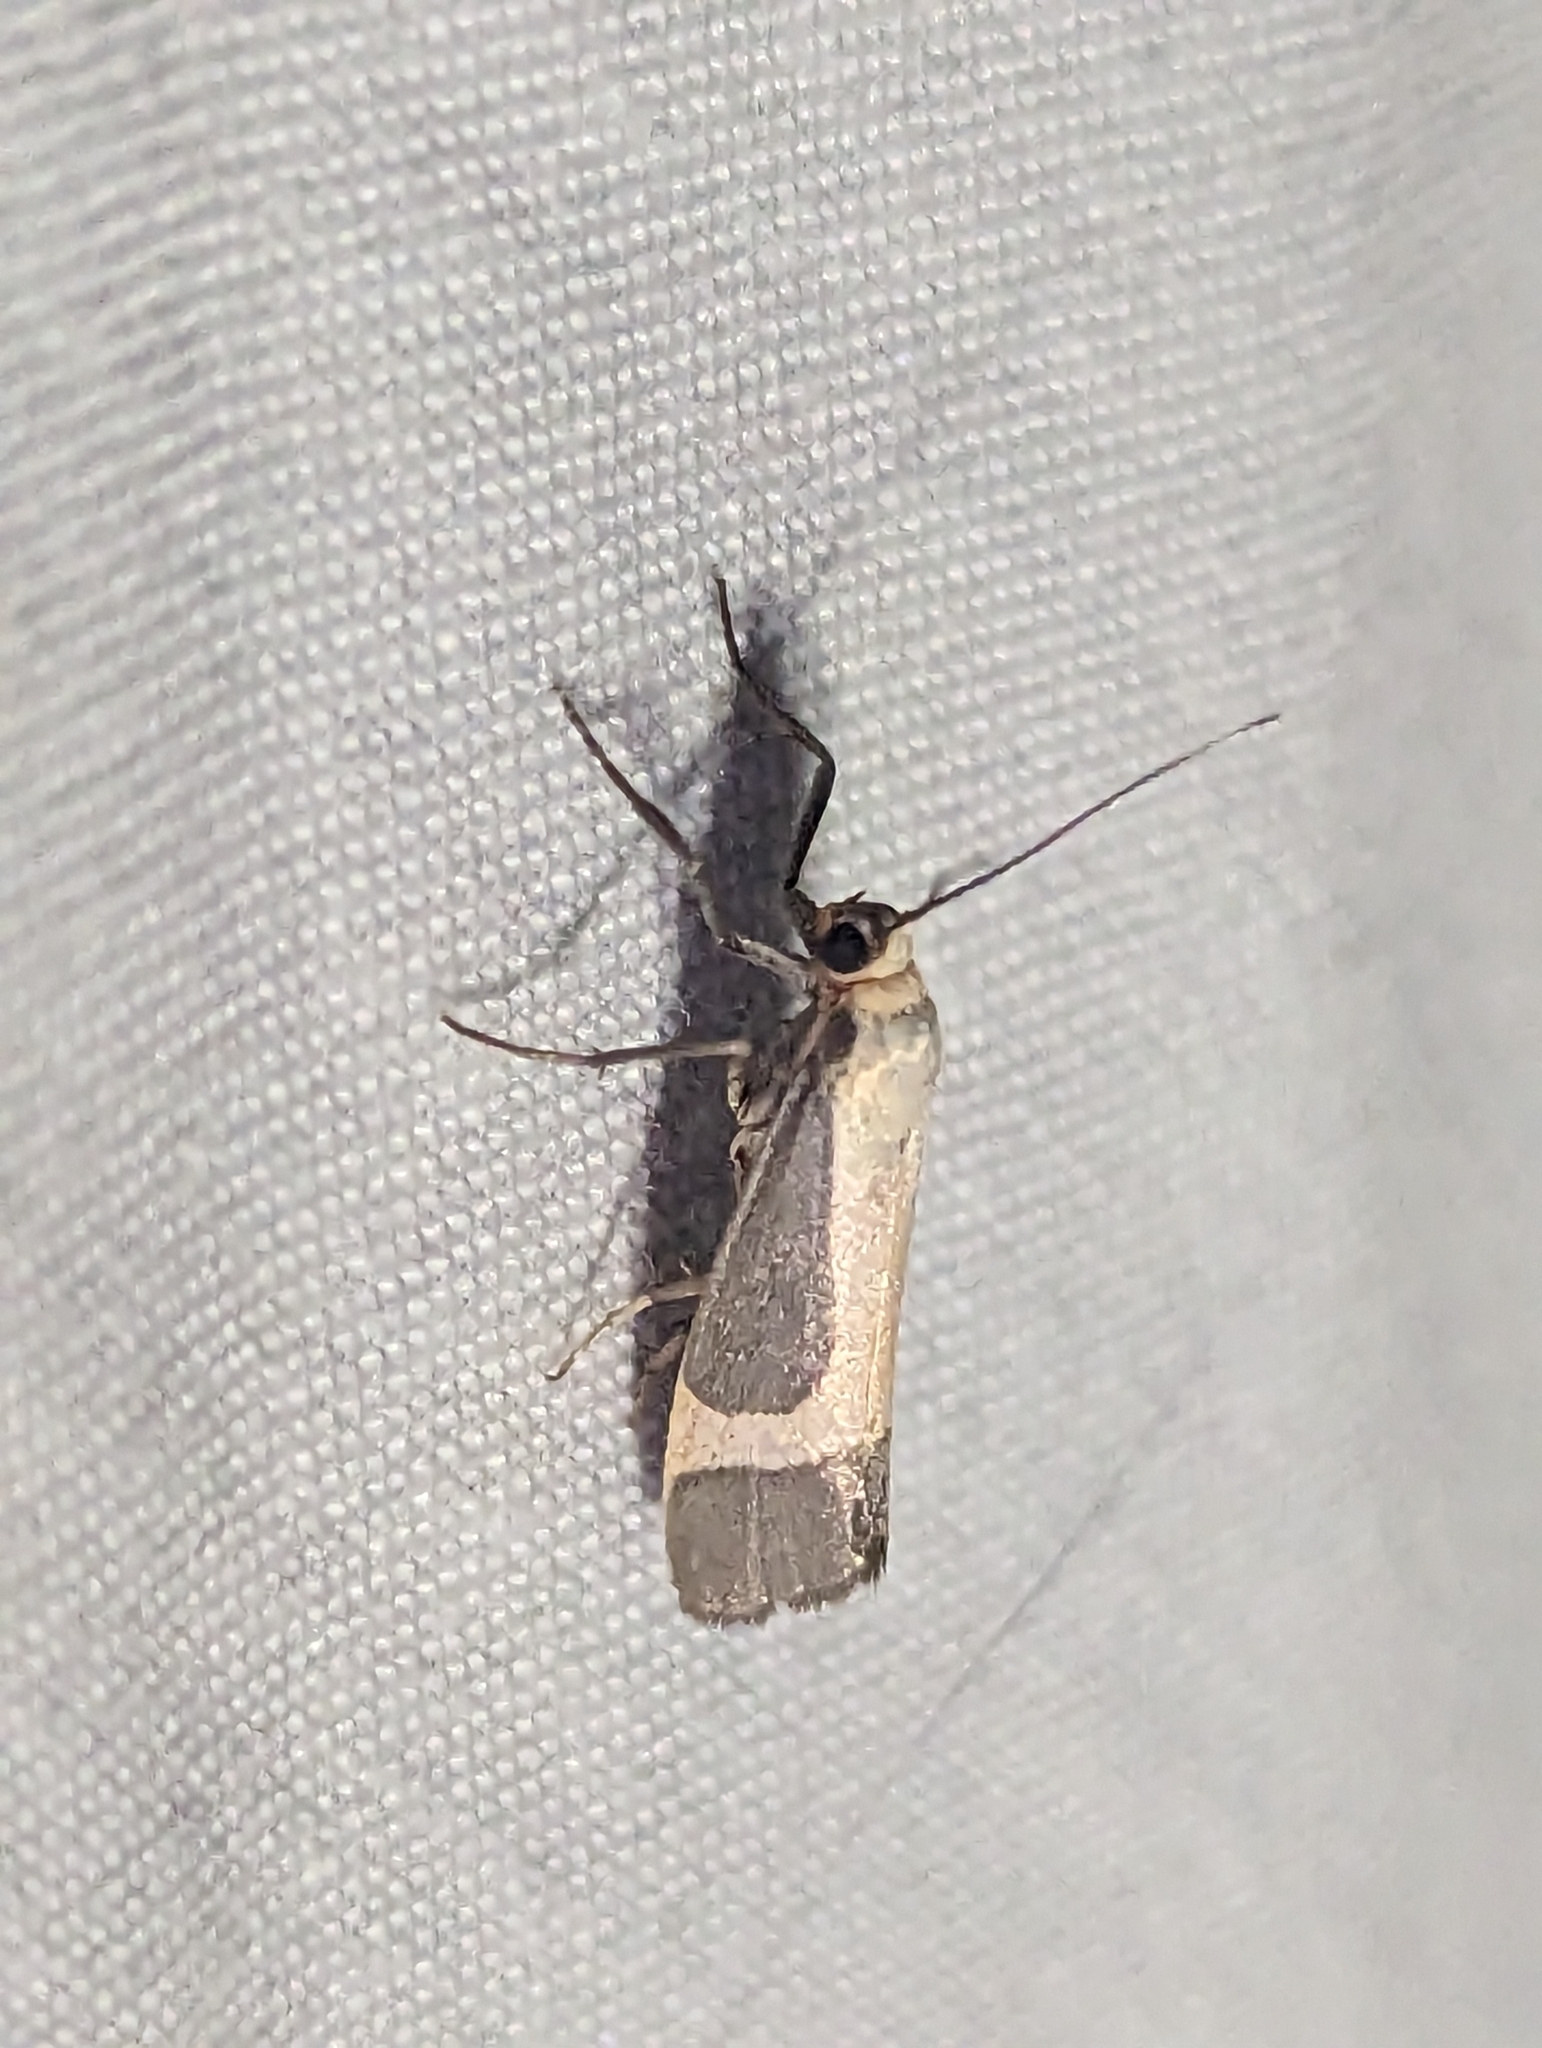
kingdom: Animalia
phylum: Arthropoda
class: Insecta
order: Lepidoptera
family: Erebidae
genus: Cisthene
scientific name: Cisthene angelus
